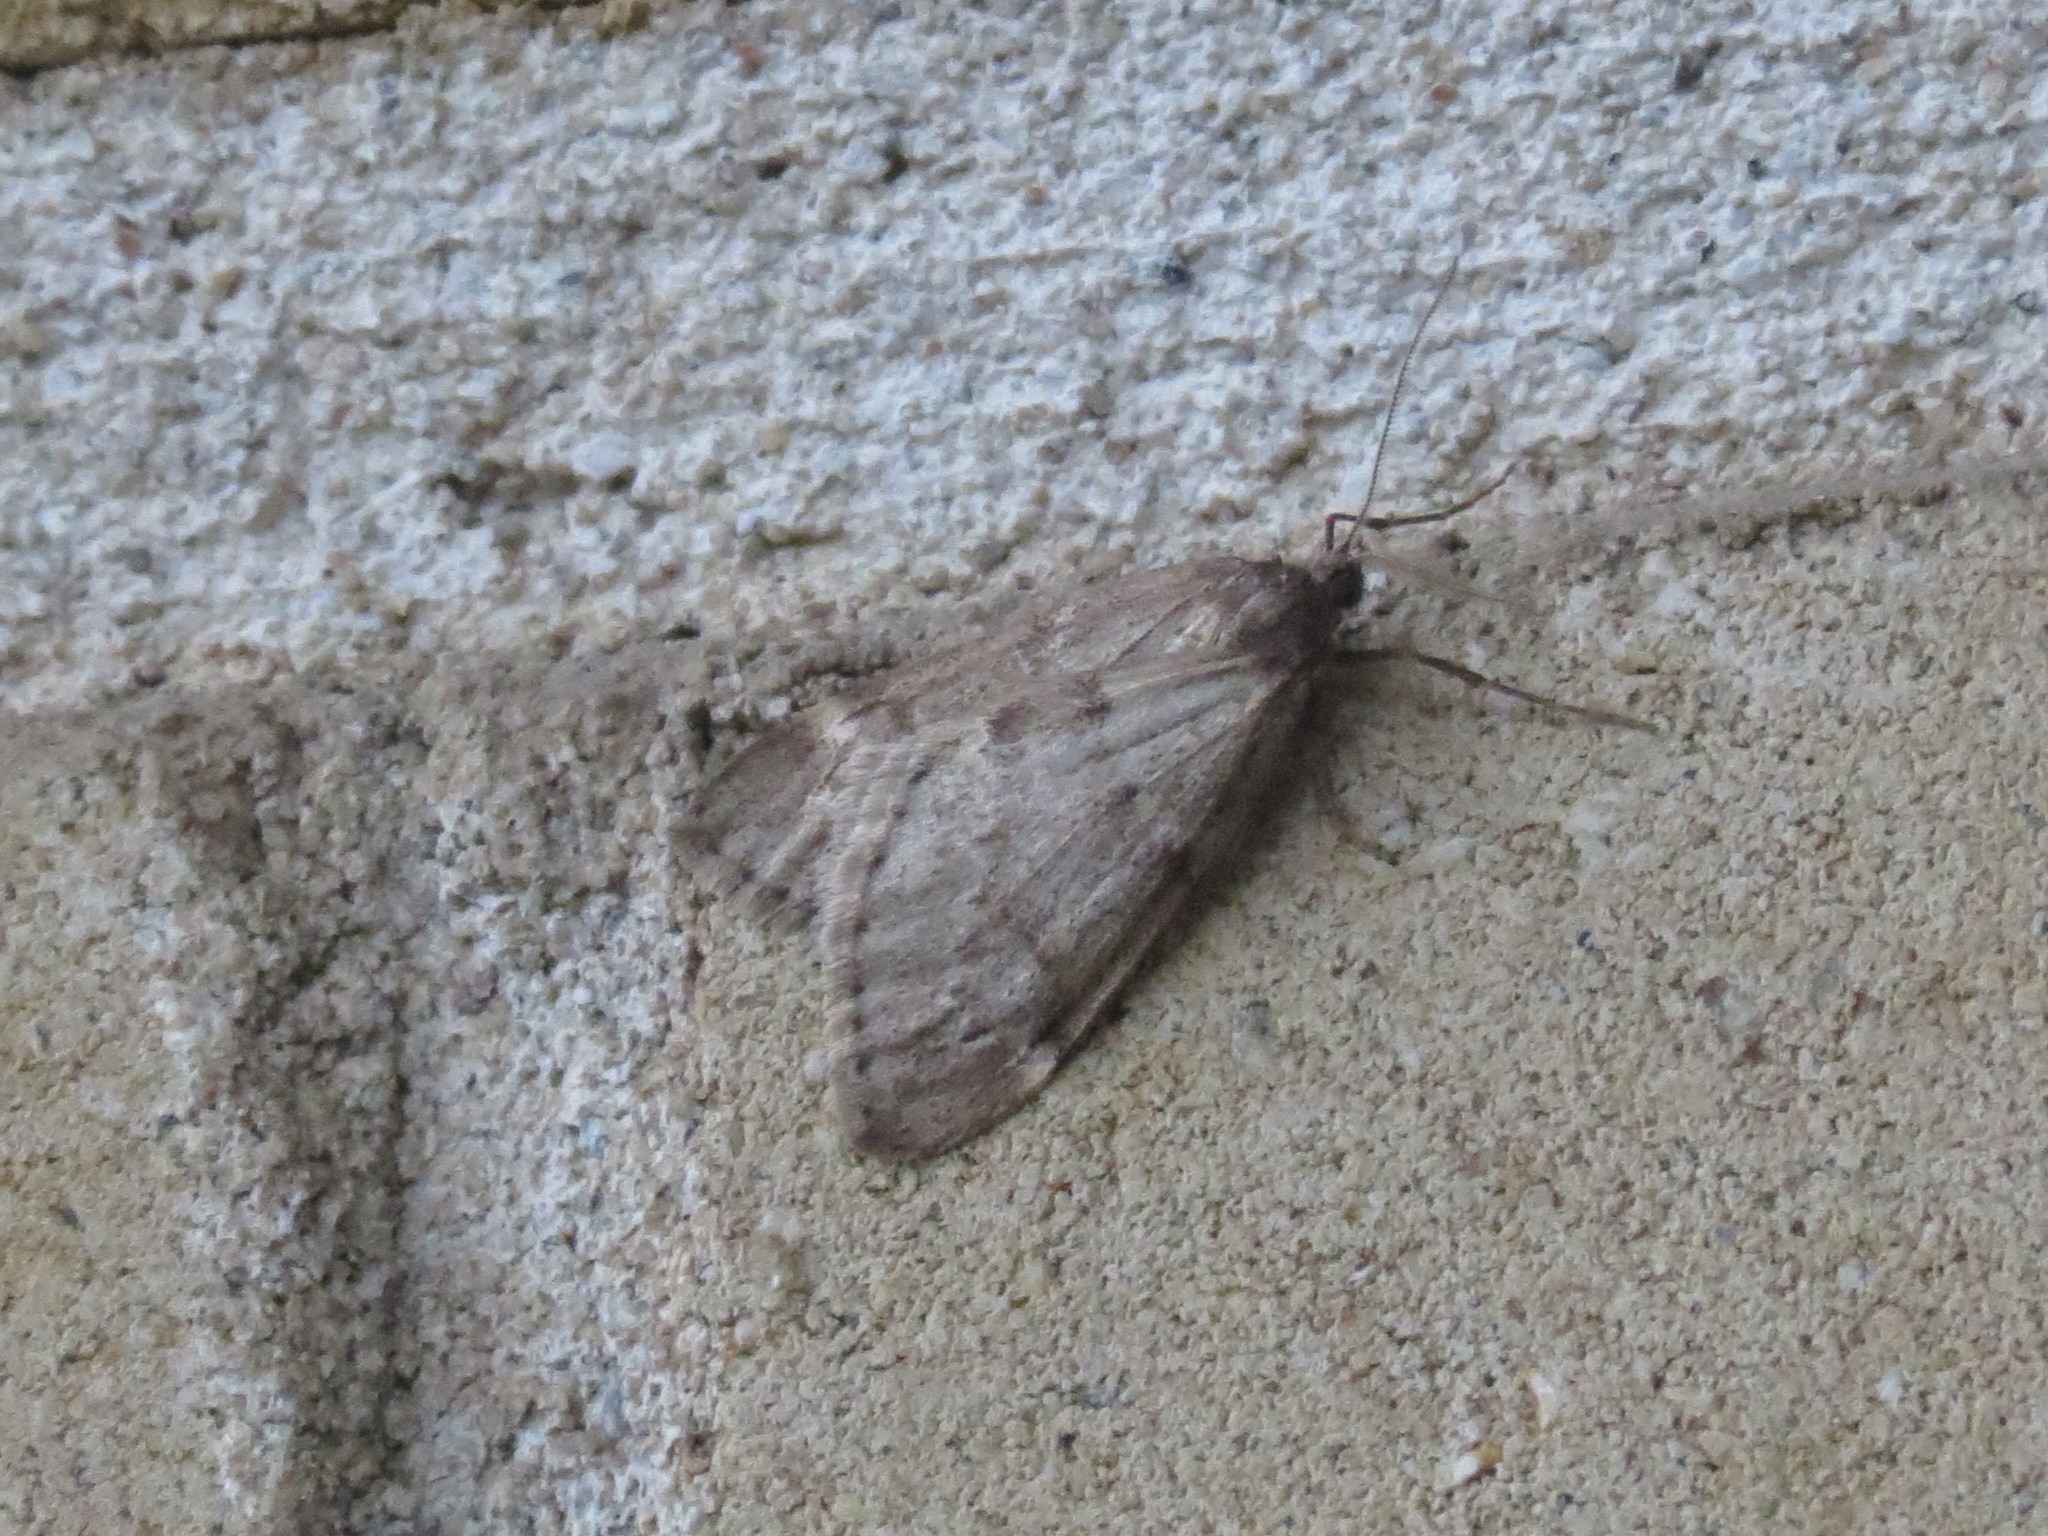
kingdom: Animalia
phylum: Arthropoda
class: Insecta
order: Lepidoptera
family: Geometridae
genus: Alsophila
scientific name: Alsophila pometaria
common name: Fall cankerworm
